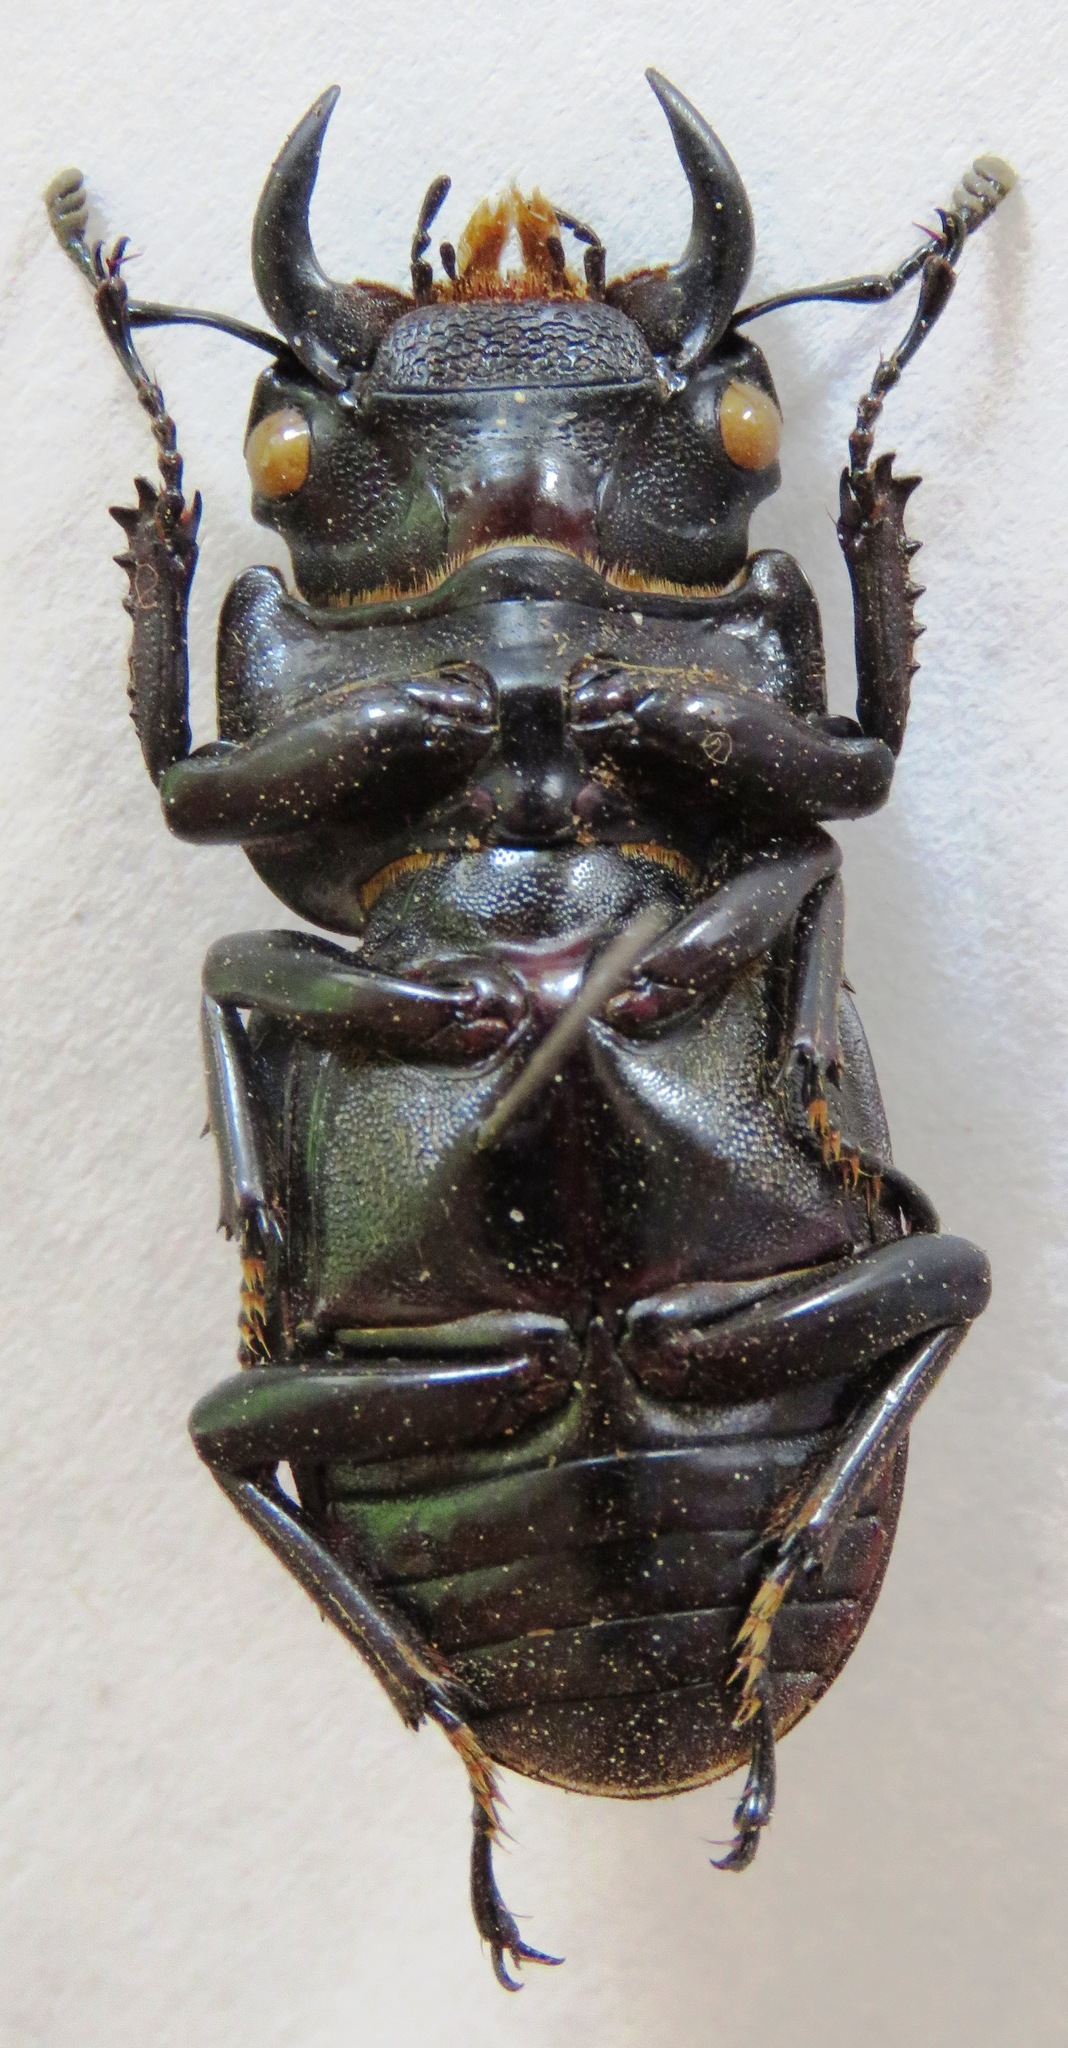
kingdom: Animalia
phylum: Arthropoda
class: Insecta
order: Coleoptera
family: Lucanidae
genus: Dorcus
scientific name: Dorcus antaeus
